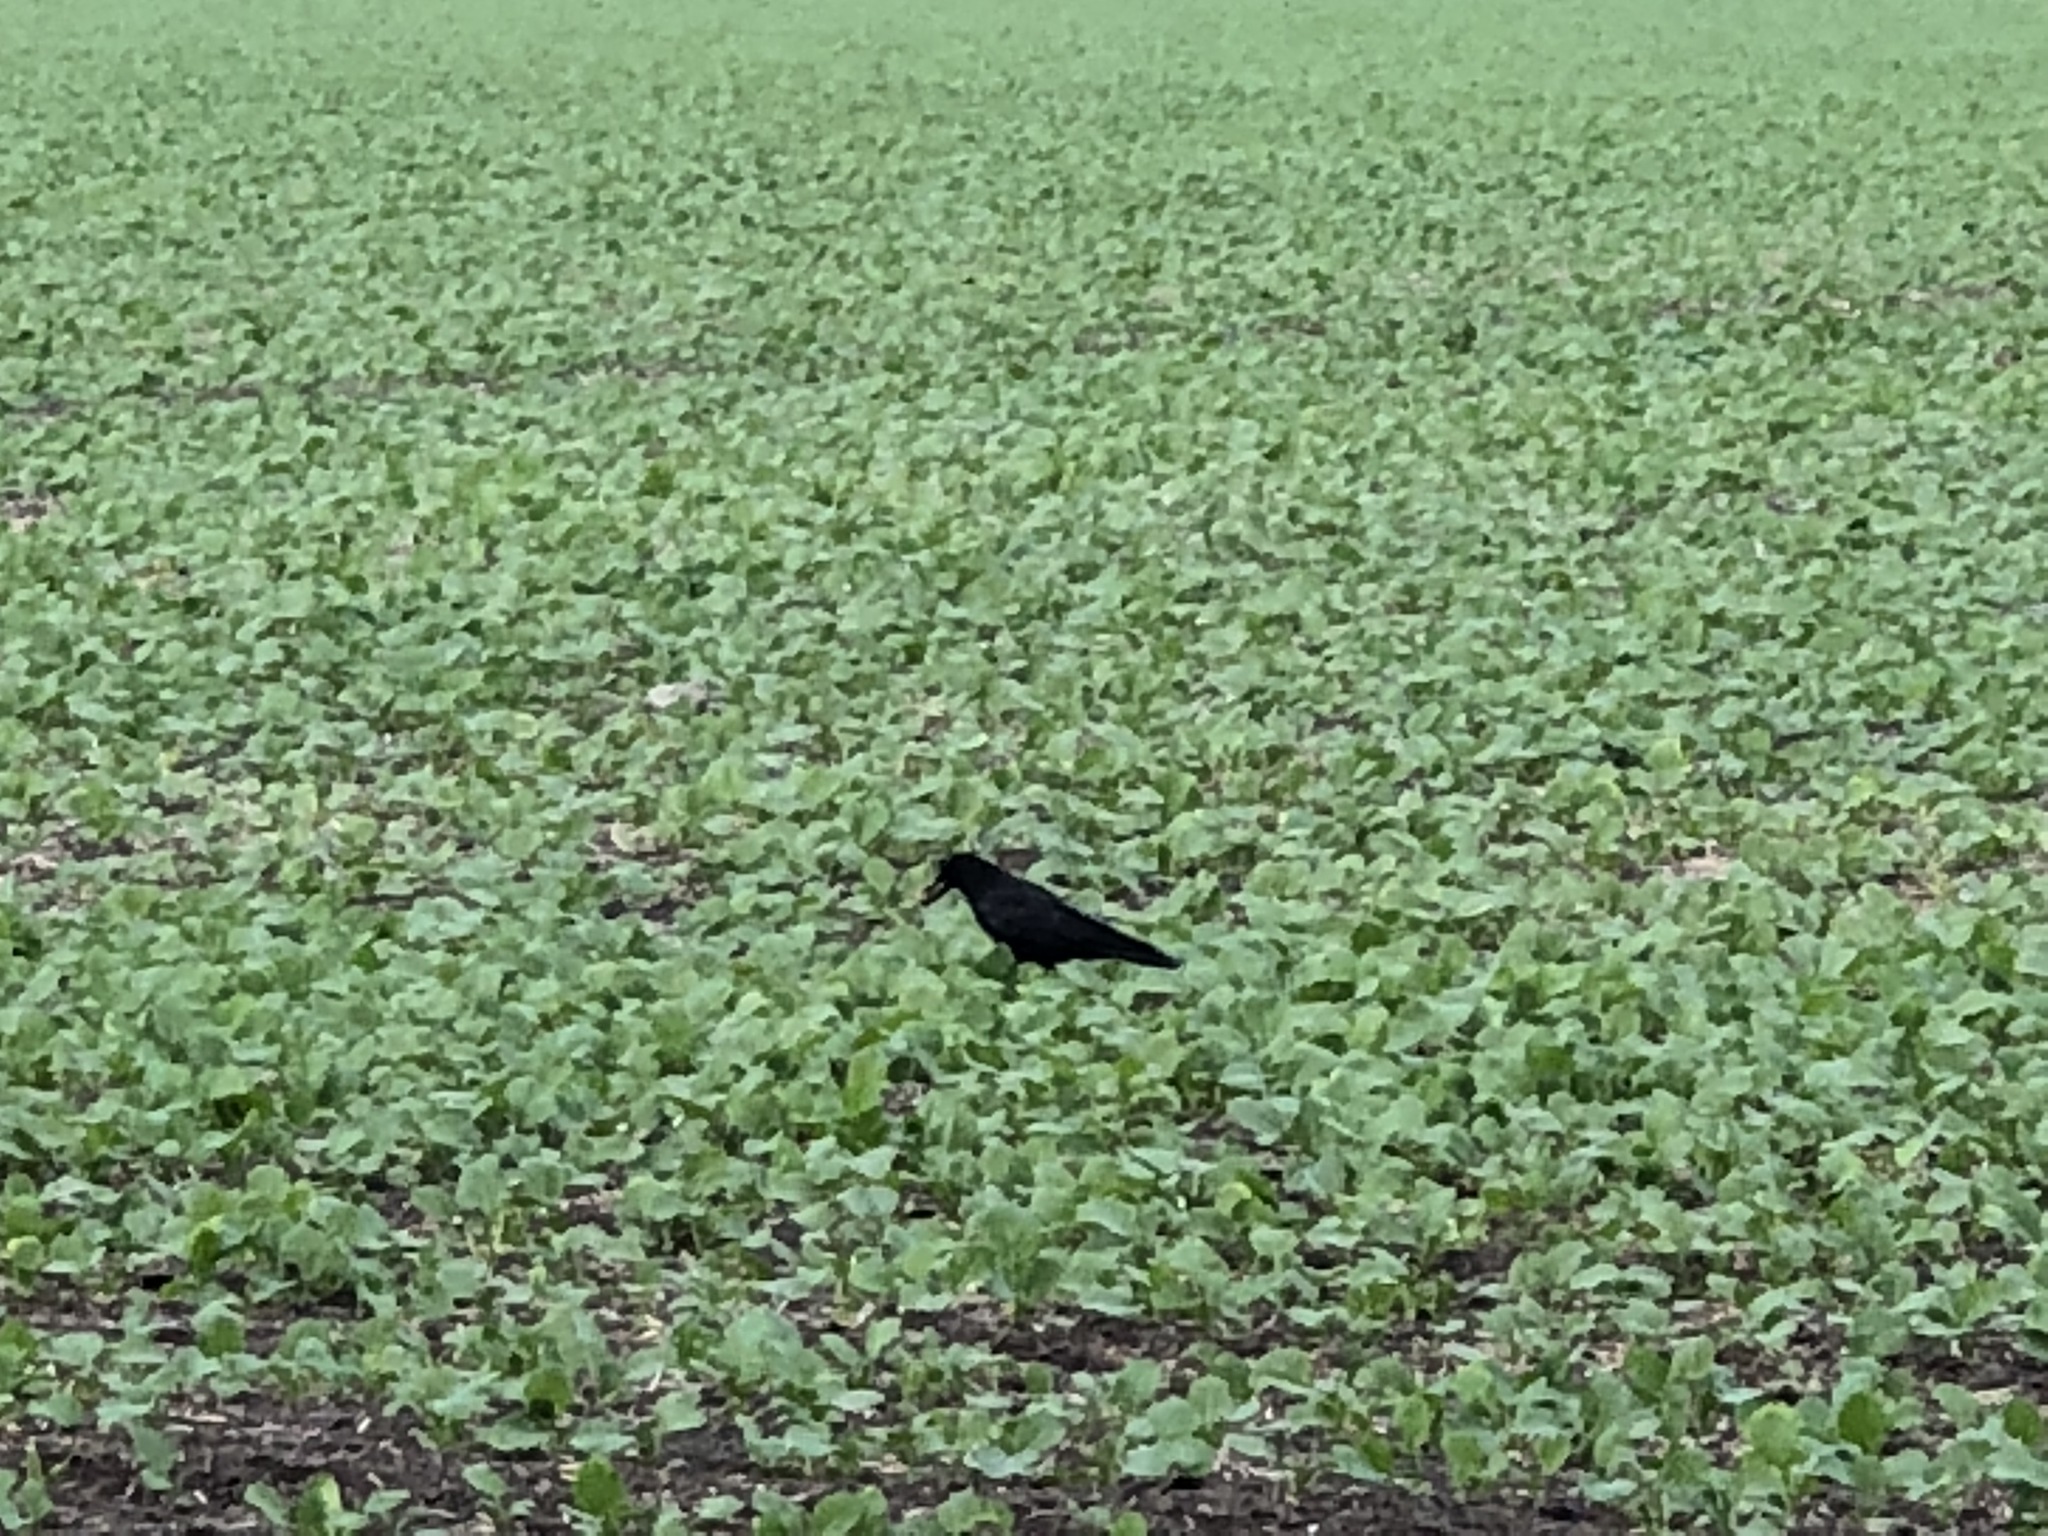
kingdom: Animalia
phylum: Chordata
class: Aves
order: Passeriformes
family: Corvidae
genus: Corvus
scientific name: Corvus corone
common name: Carrion crow
